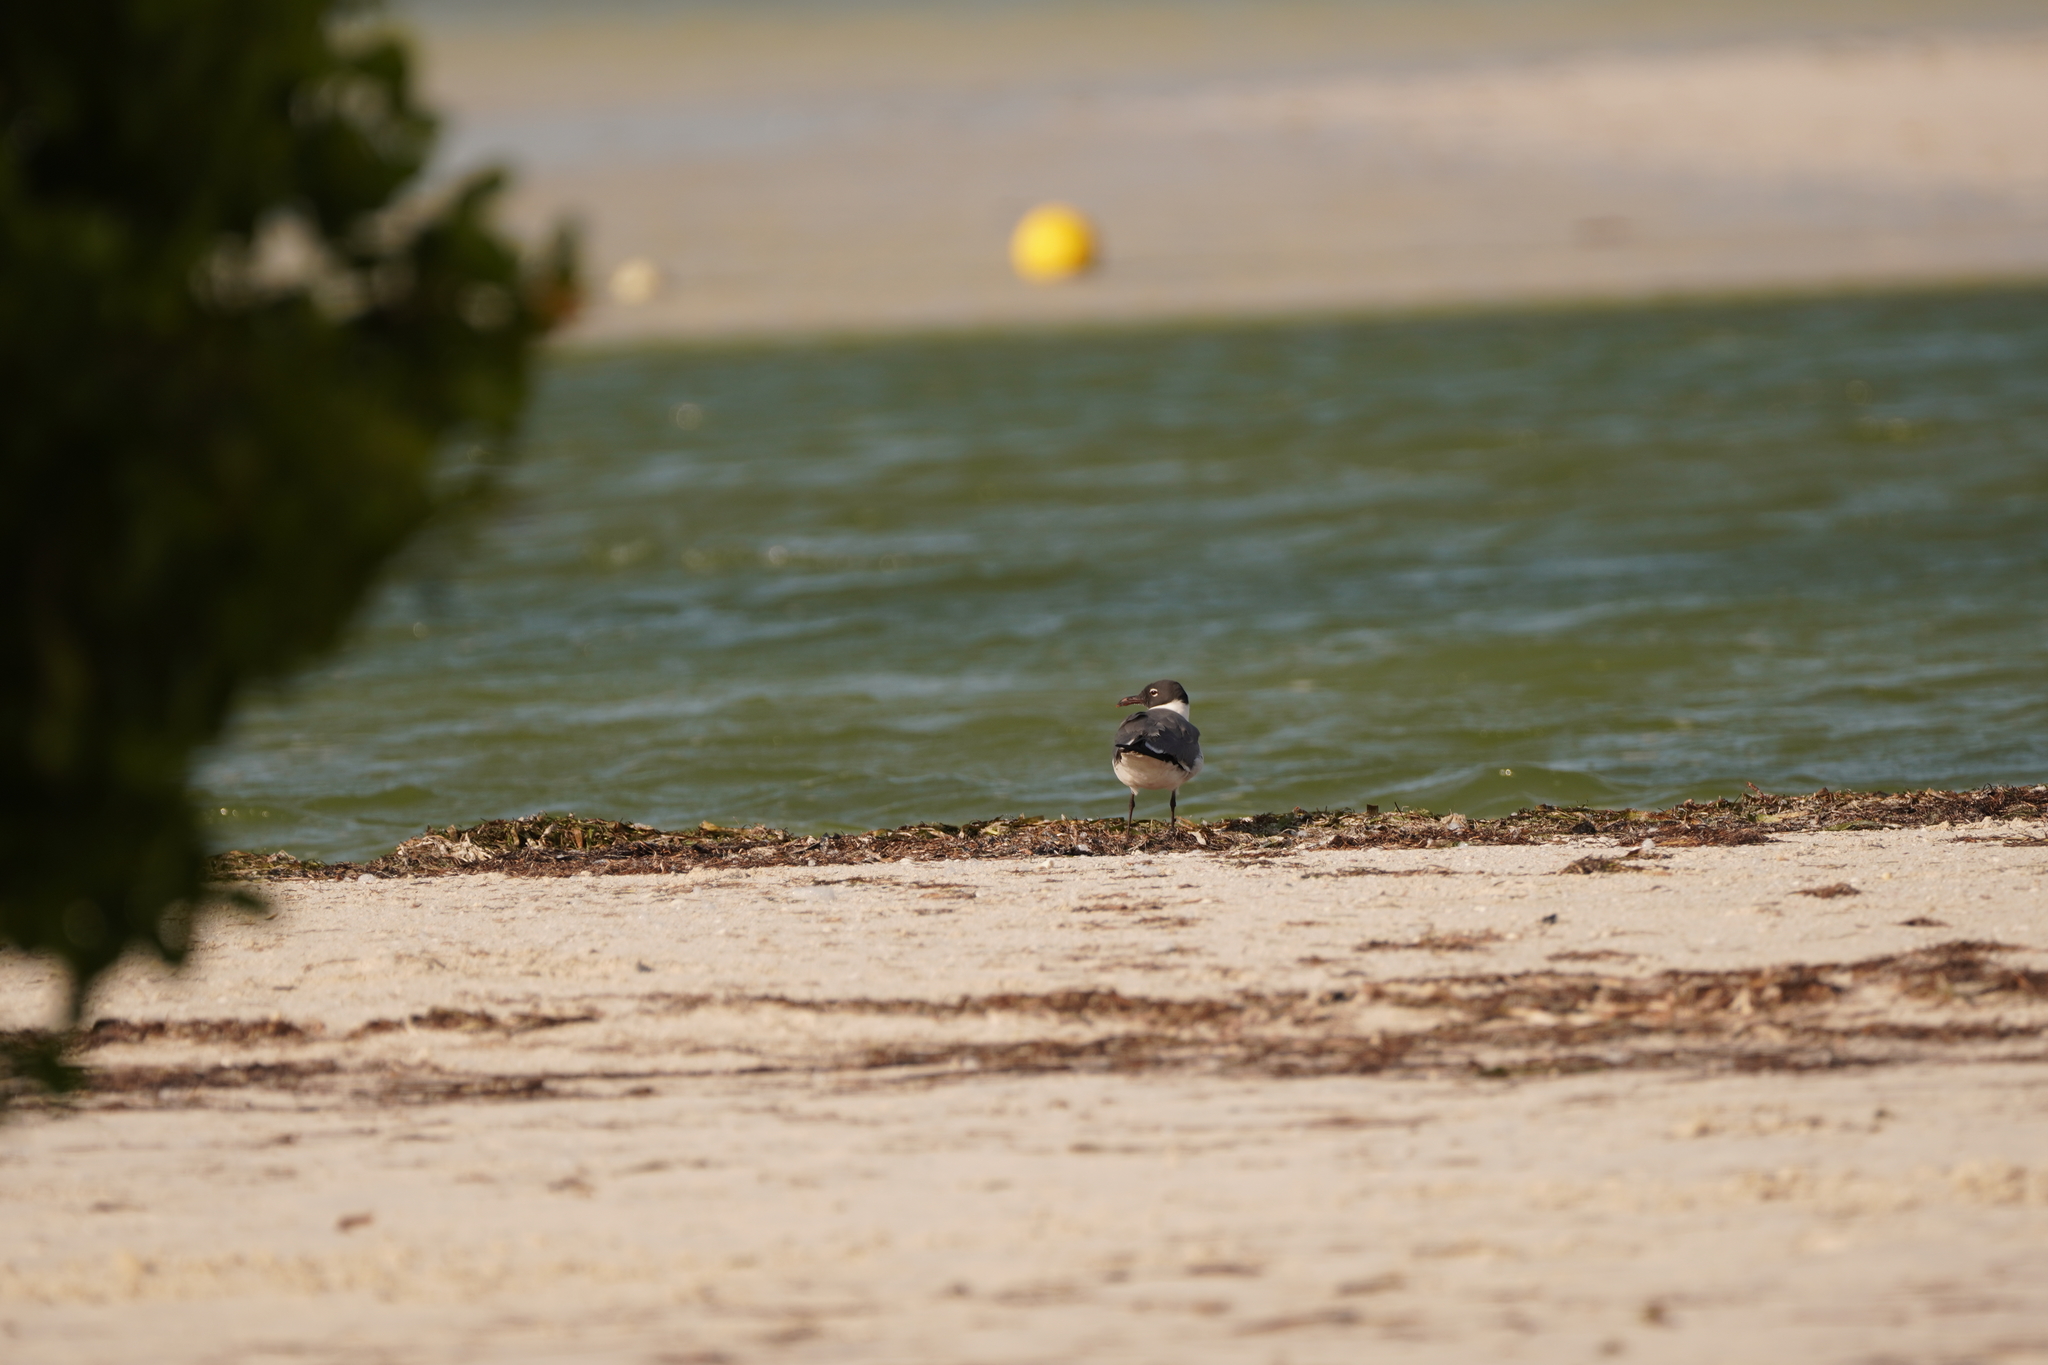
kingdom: Animalia
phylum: Chordata
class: Aves
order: Charadriiformes
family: Laridae
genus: Leucophaeus
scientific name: Leucophaeus atricilla
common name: Laughing gull
